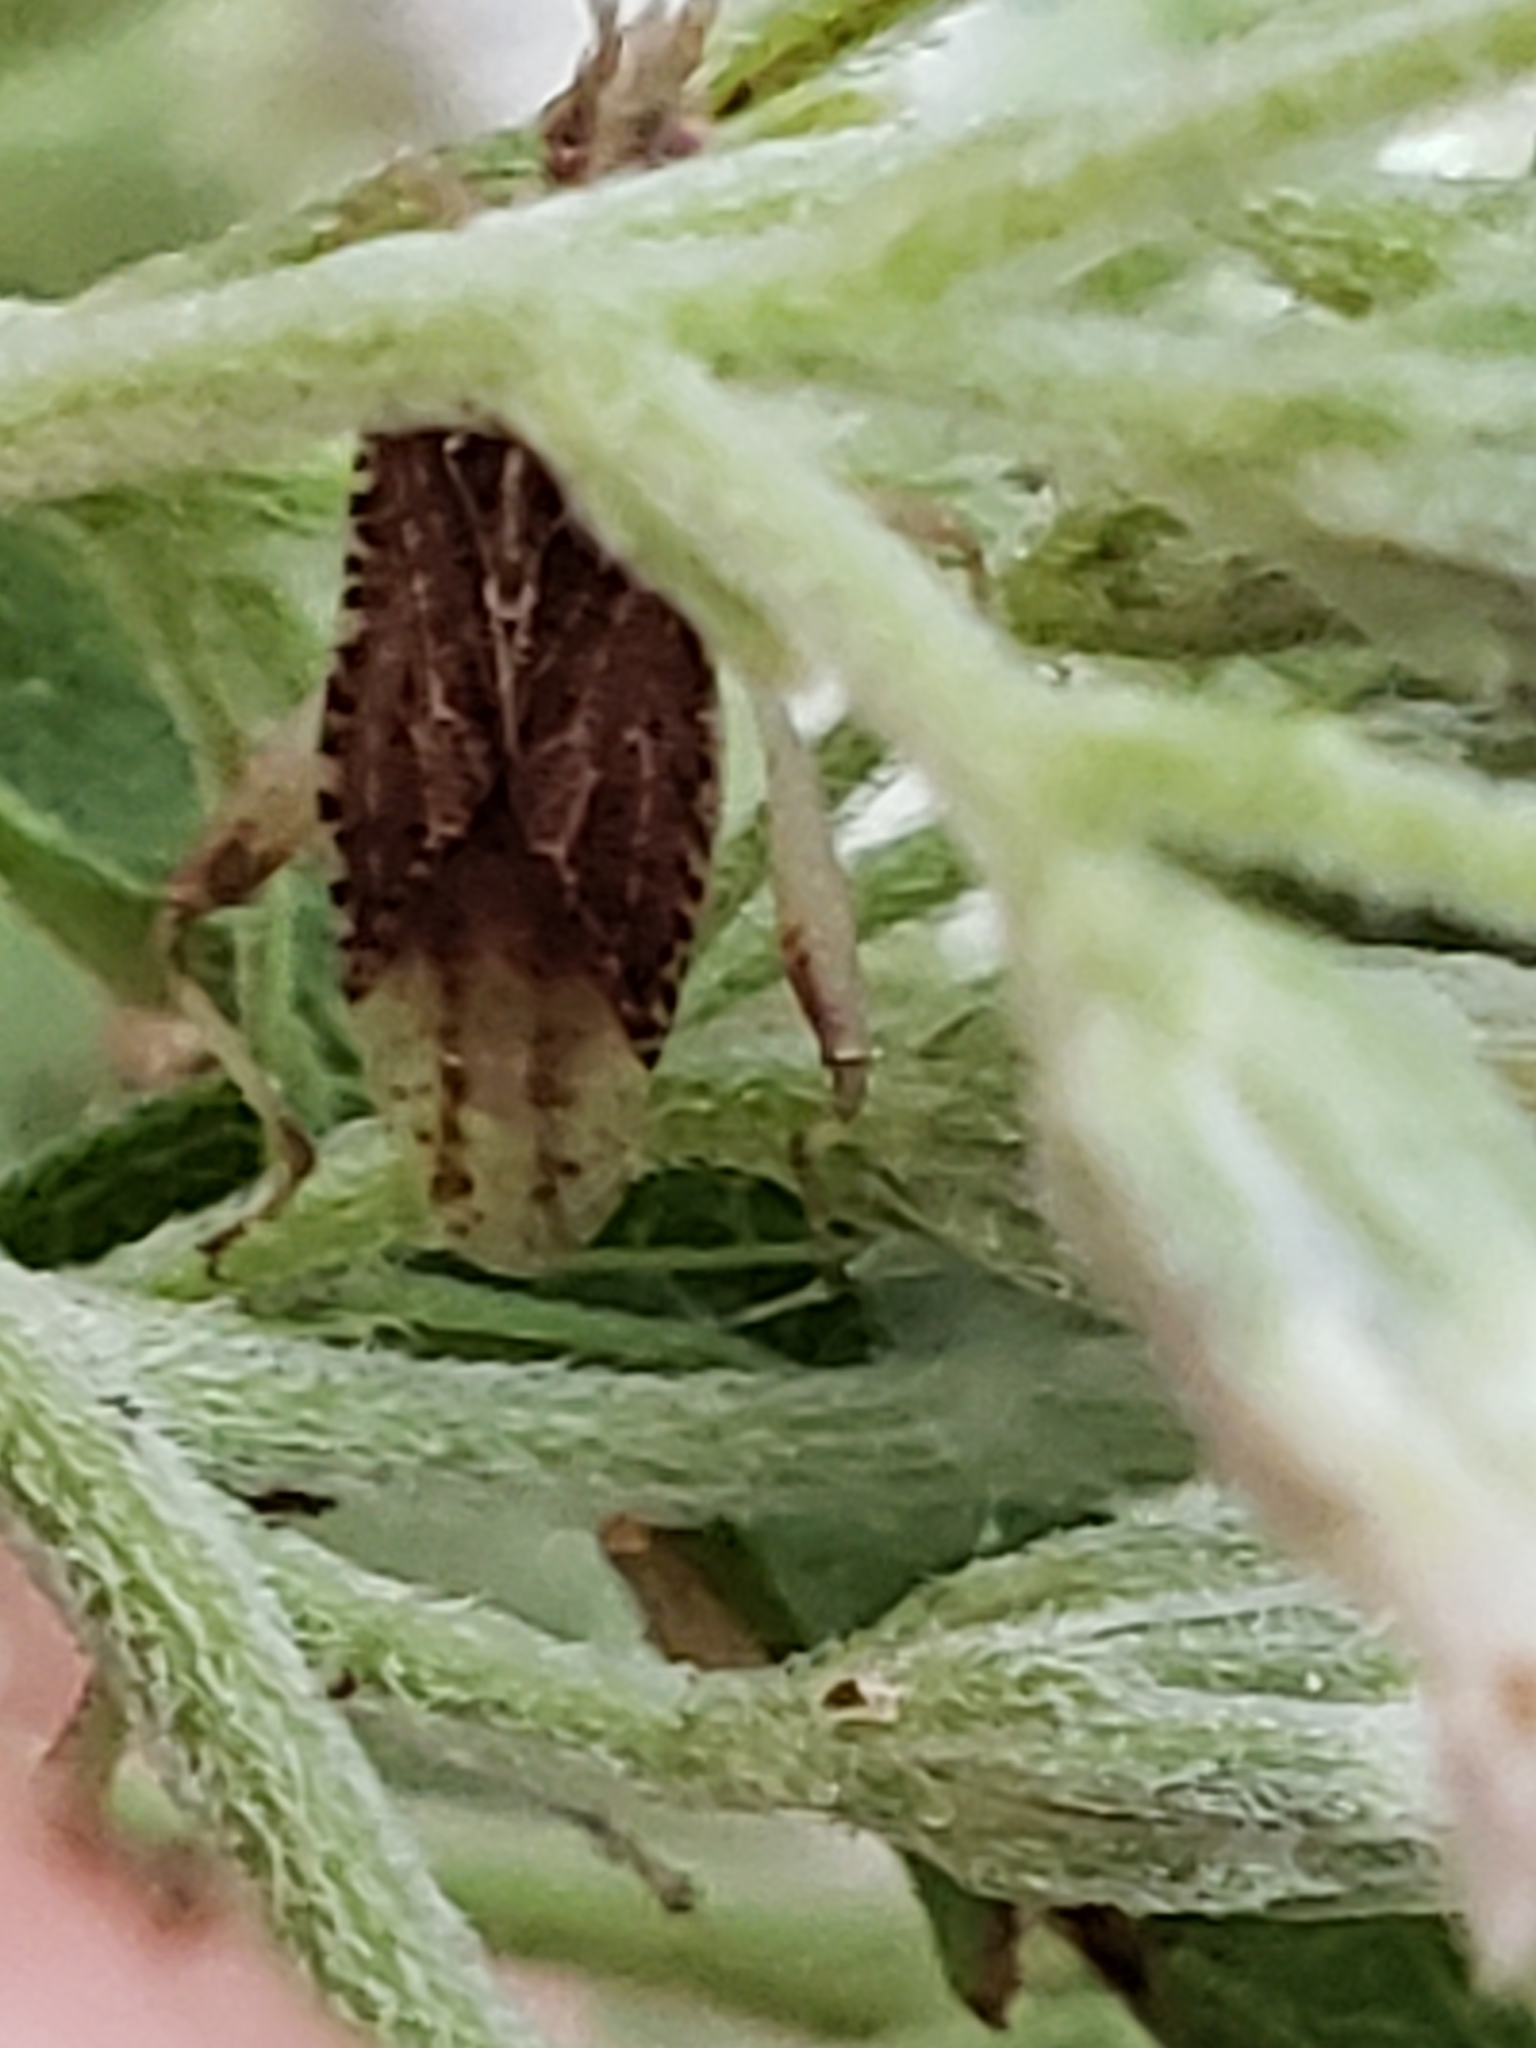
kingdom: Animalia
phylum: Arthropoda
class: Insecta
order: Hemiptera
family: Rhopalidae
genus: Harmostes
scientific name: Harmostes fraterculus
